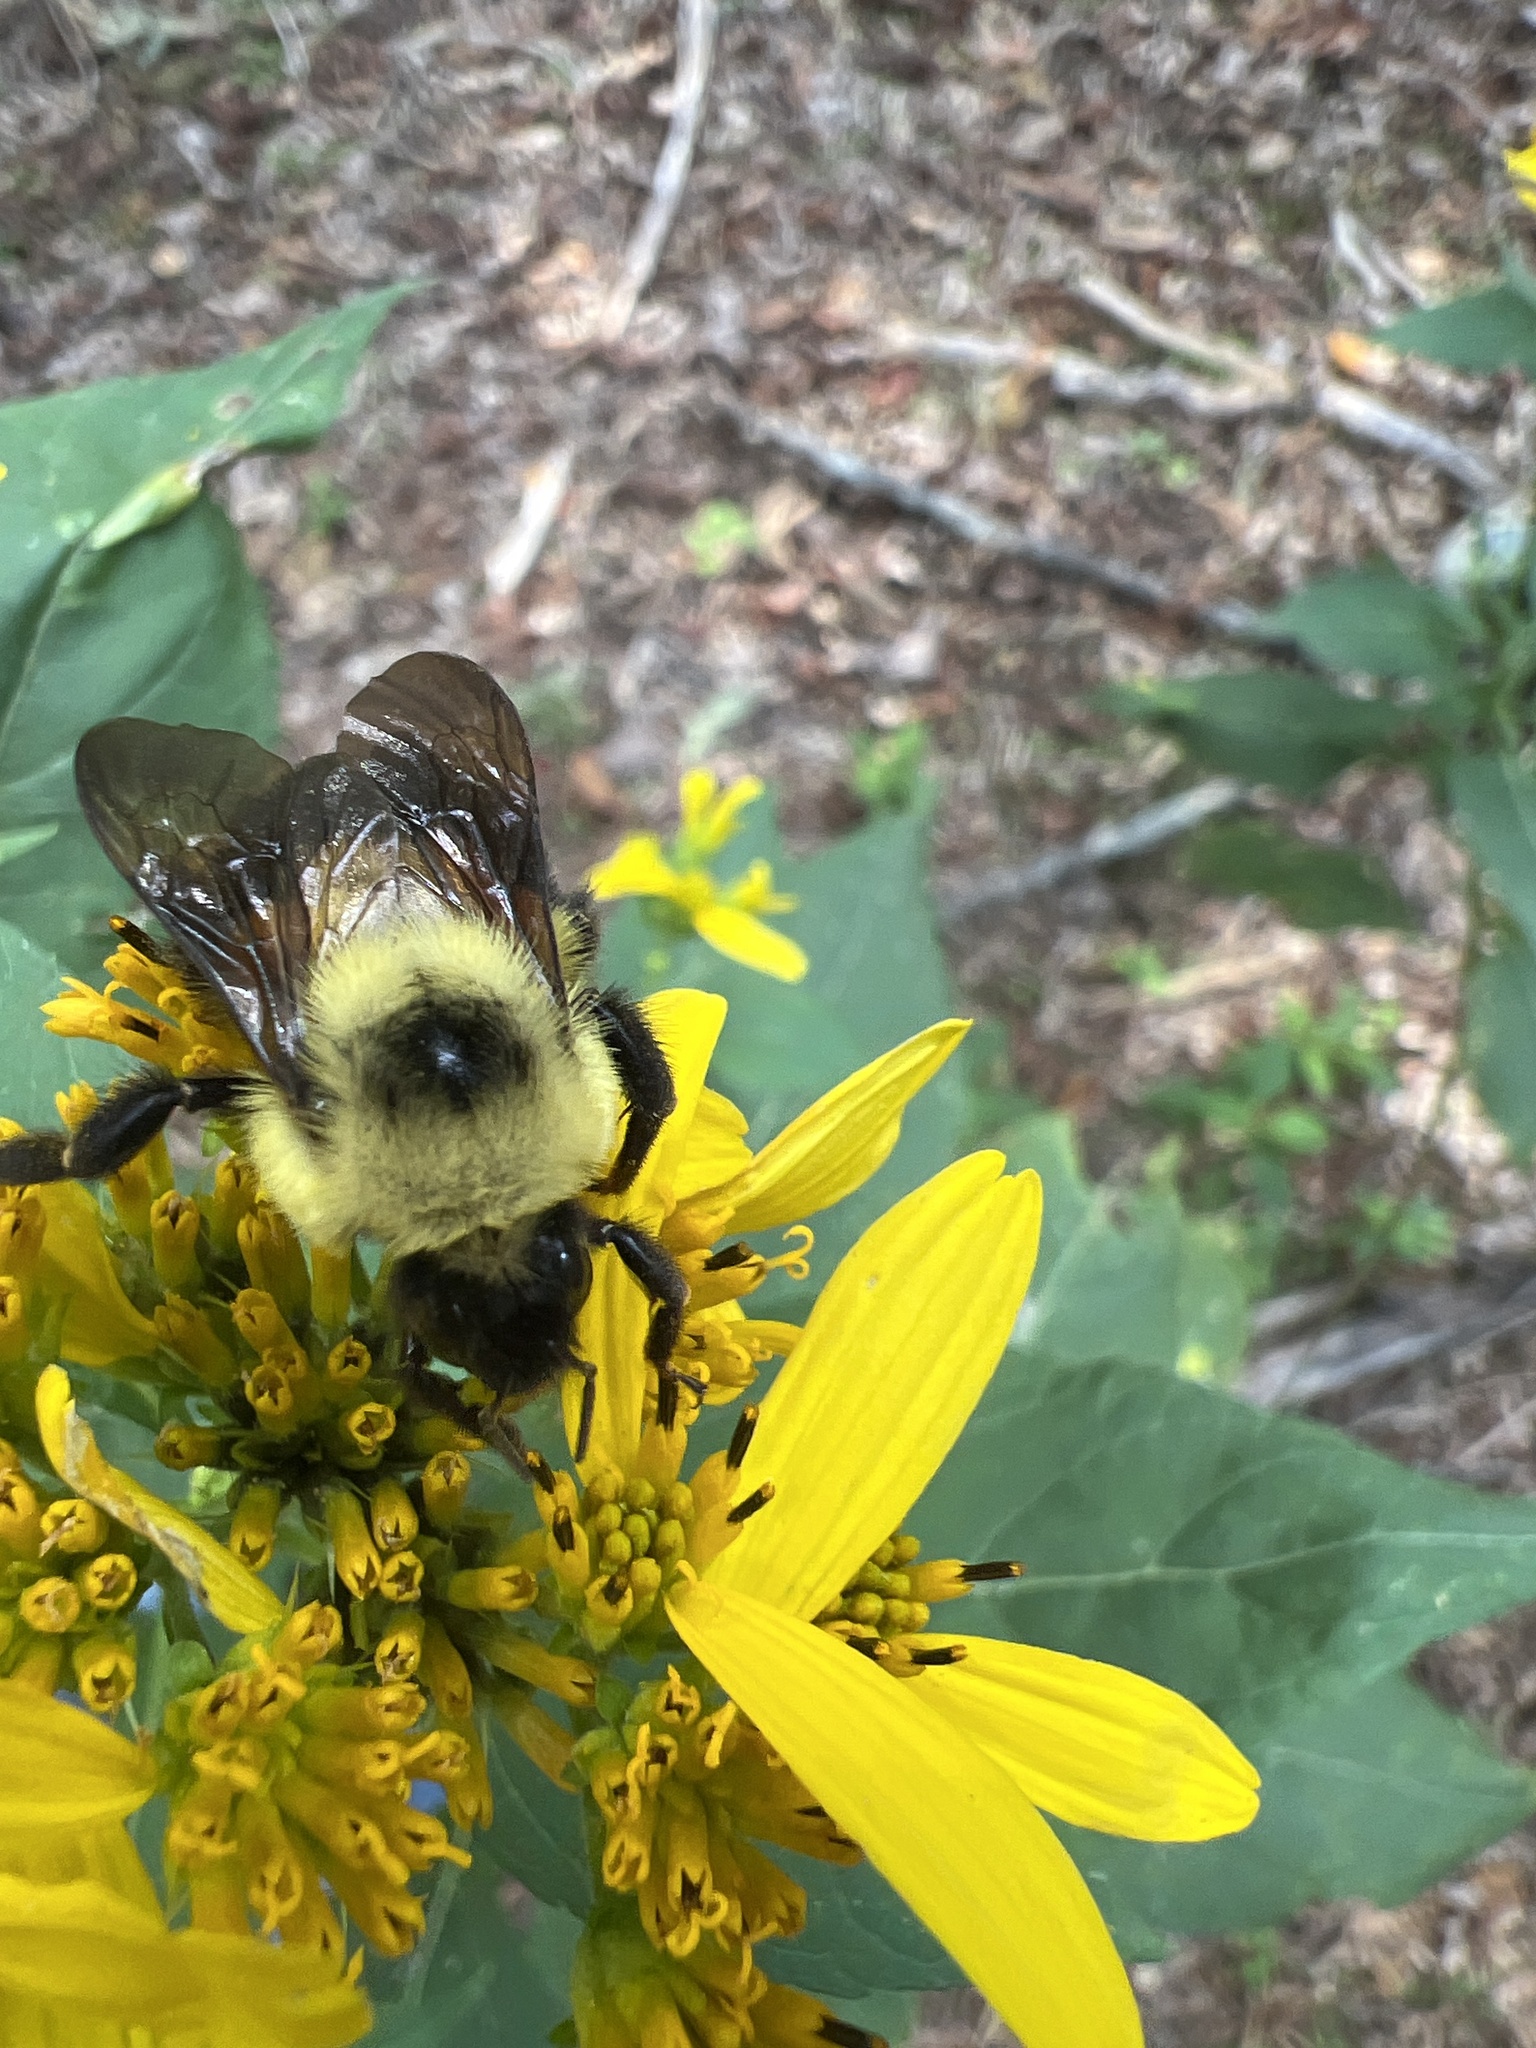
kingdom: Animalia
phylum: Arthropoda
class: Insecta
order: Hymenoptera
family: Apidae
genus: Bombus
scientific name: Bombus bimaculatus
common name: Two-spotted bumble bee
